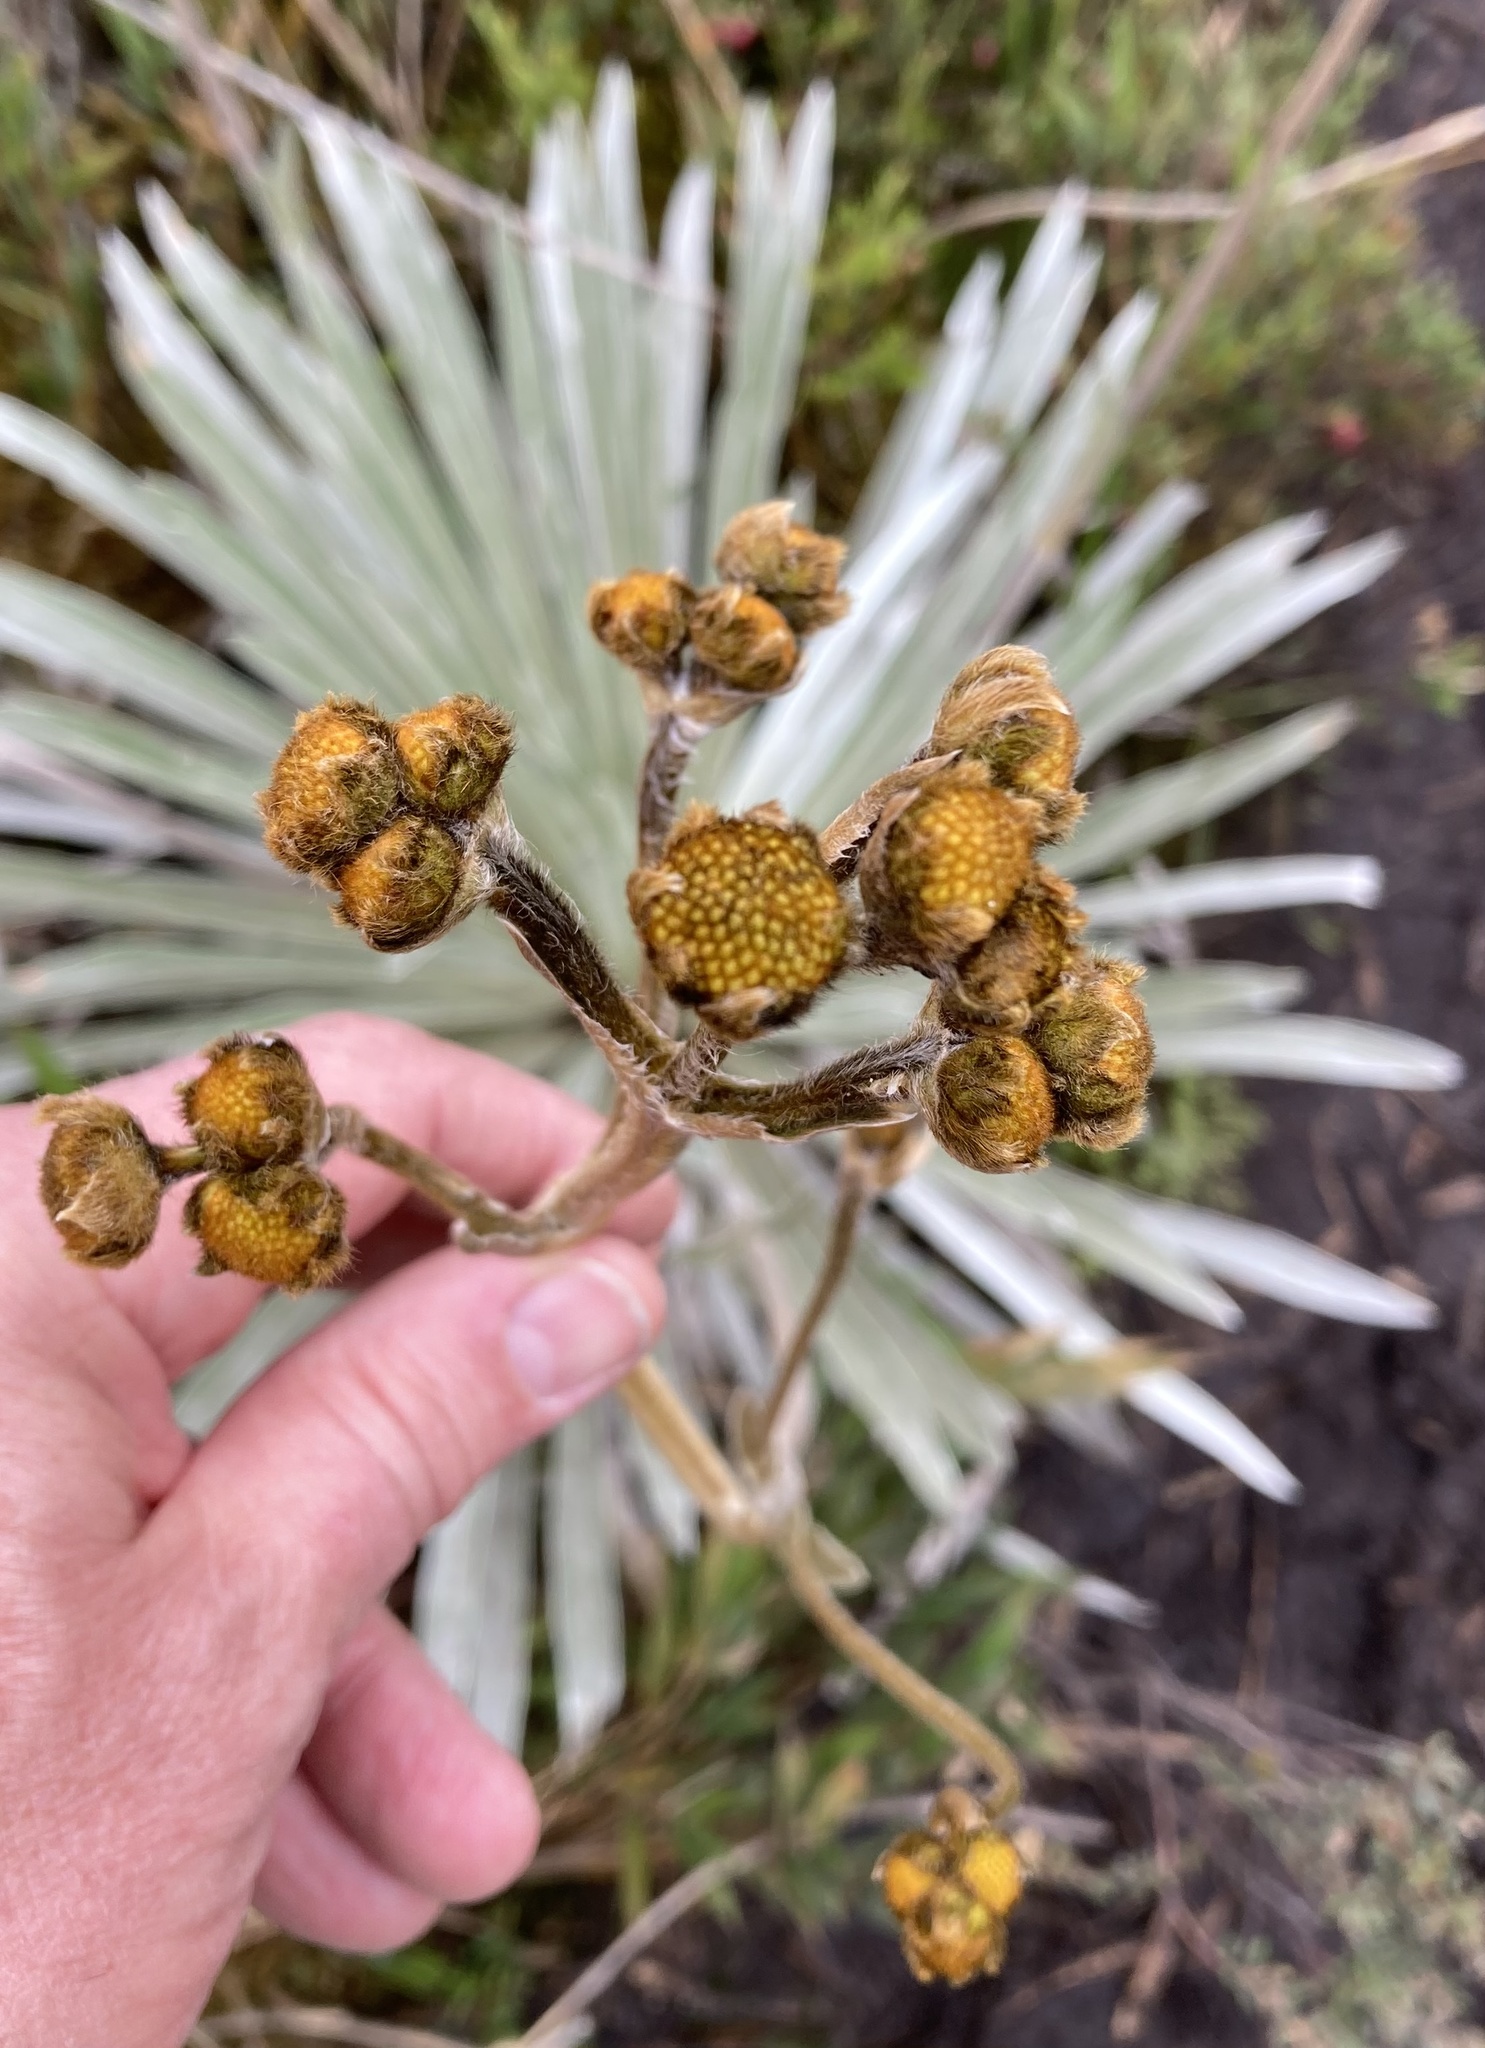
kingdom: Plantae
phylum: Tracheophyta
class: Magnoliopsida
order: Asterales
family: Asteraceae
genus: Espeletia
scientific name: Espeletia argentea
